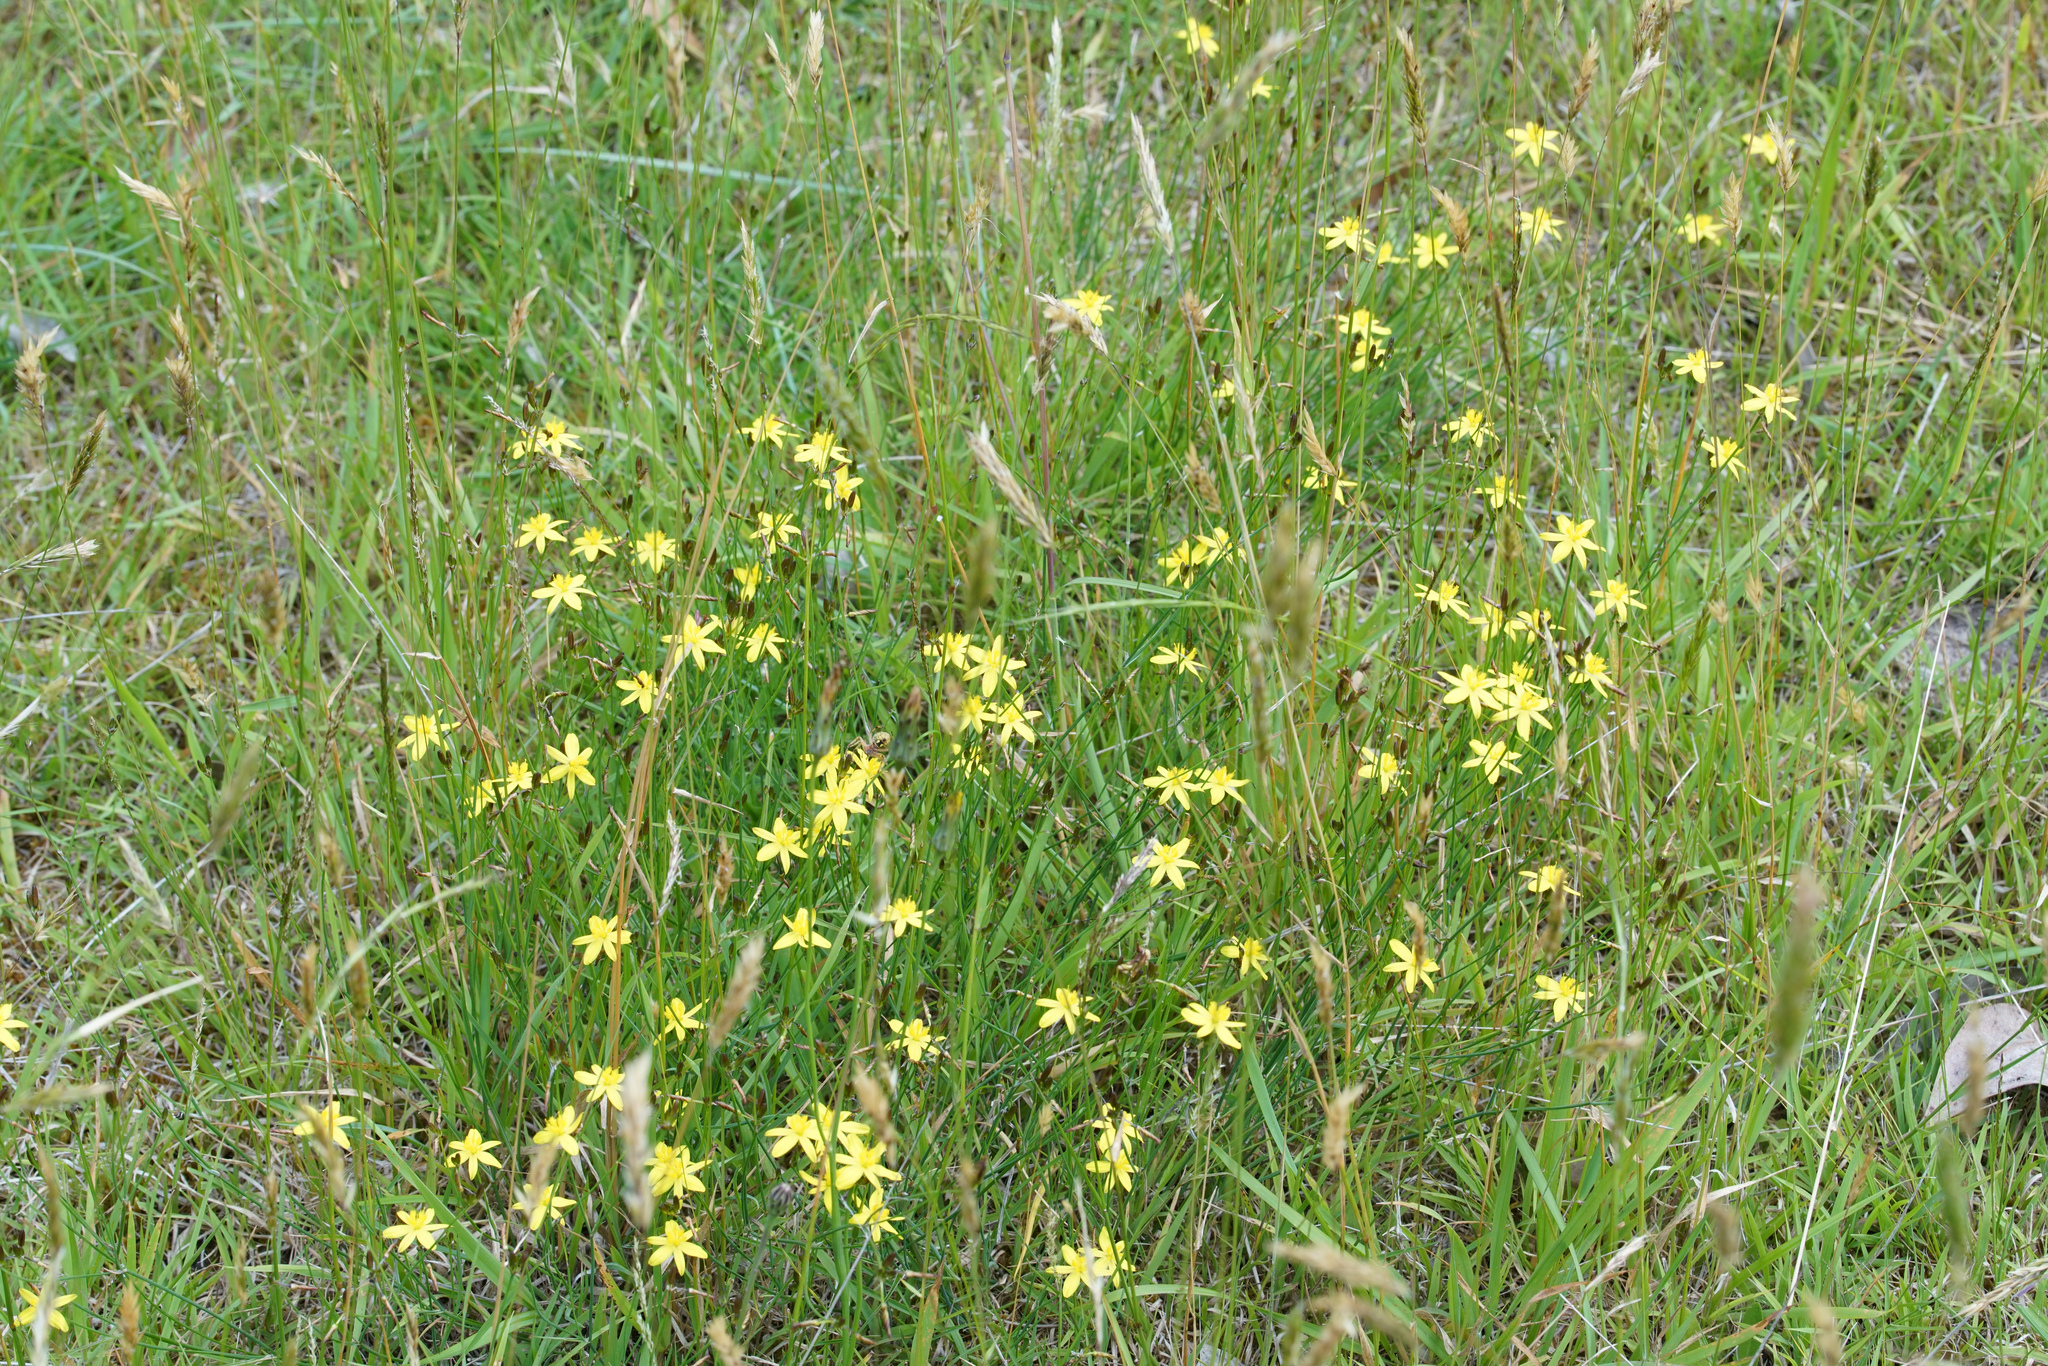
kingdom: Plantae
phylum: Tracheophyta
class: Liliopsida
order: Asparagales
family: Asphodelaceae
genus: Tricoryne
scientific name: Tricoryne elatior
